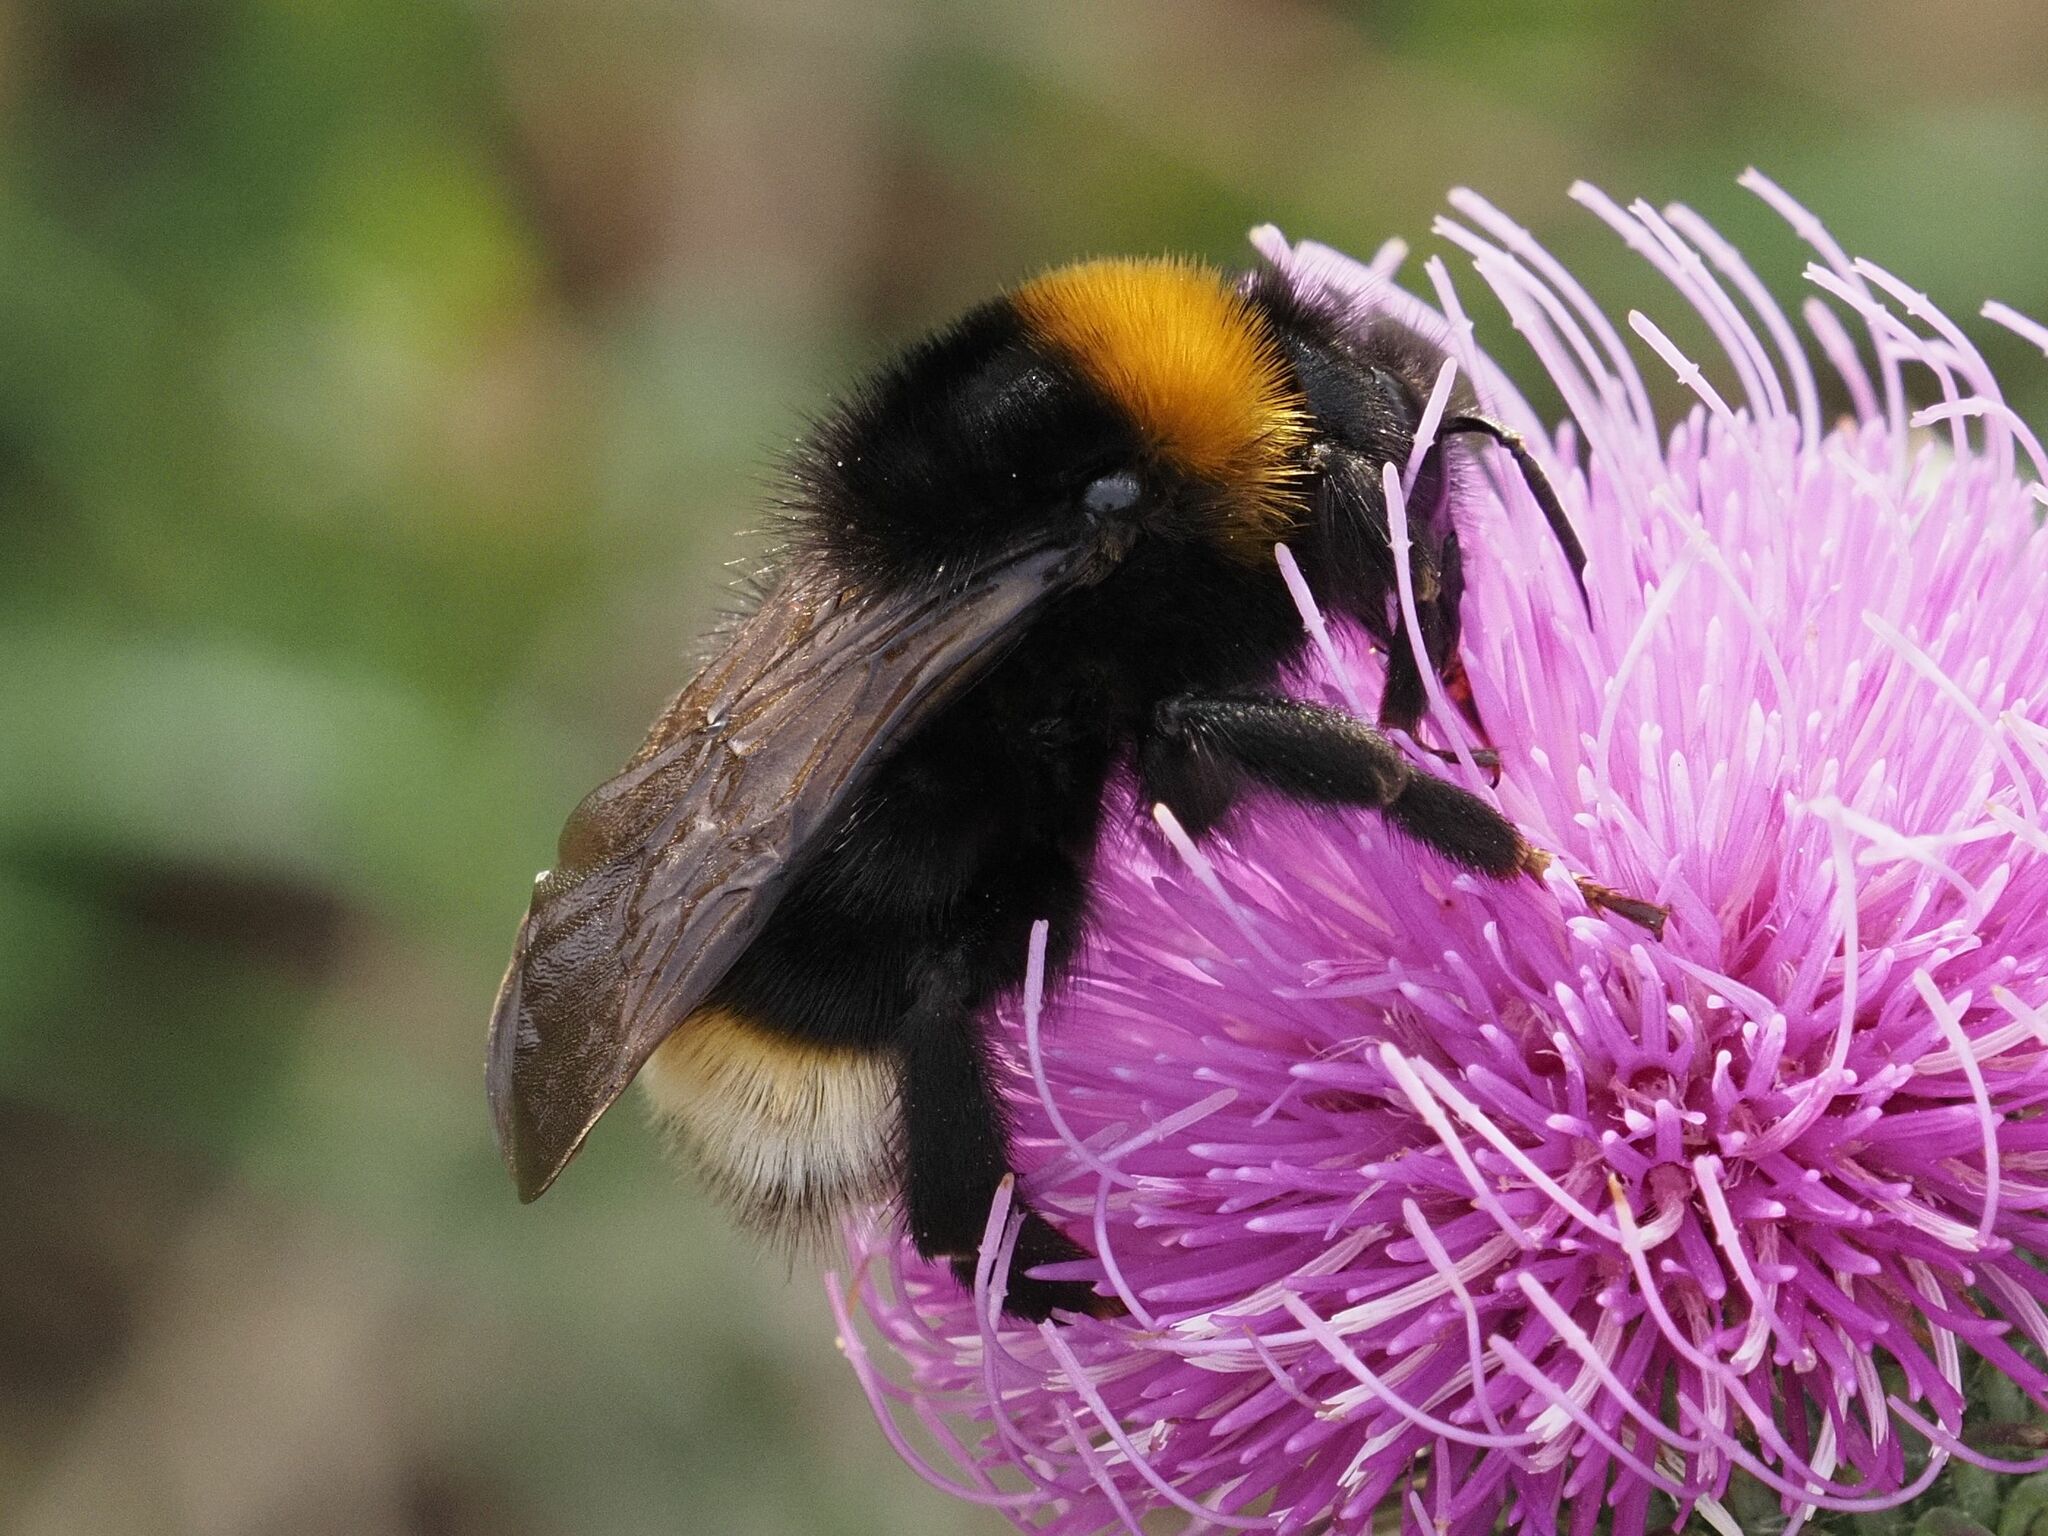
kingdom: Animalia
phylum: Arthropoda
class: Insecta
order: Hymenoptera
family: Apidae
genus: Bombus
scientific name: Bombus vestalis
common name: Vestal cuckoo bee
